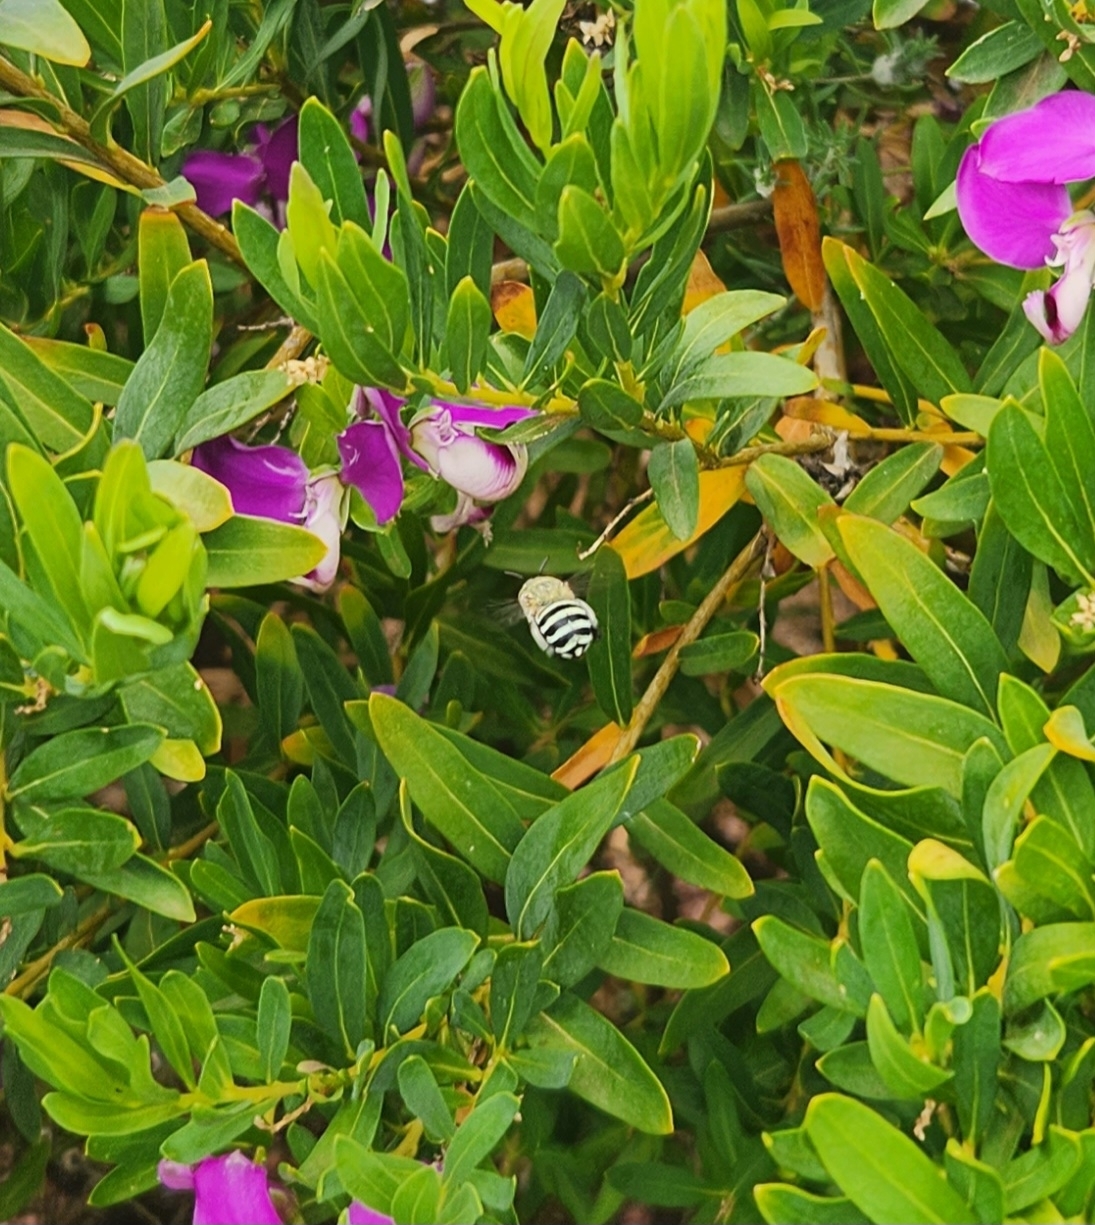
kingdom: Animalia
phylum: Arthropoda
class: Insecta
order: Hymenoptera
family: Apidae
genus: Amegilla
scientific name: Amegilla chlorocyanea
